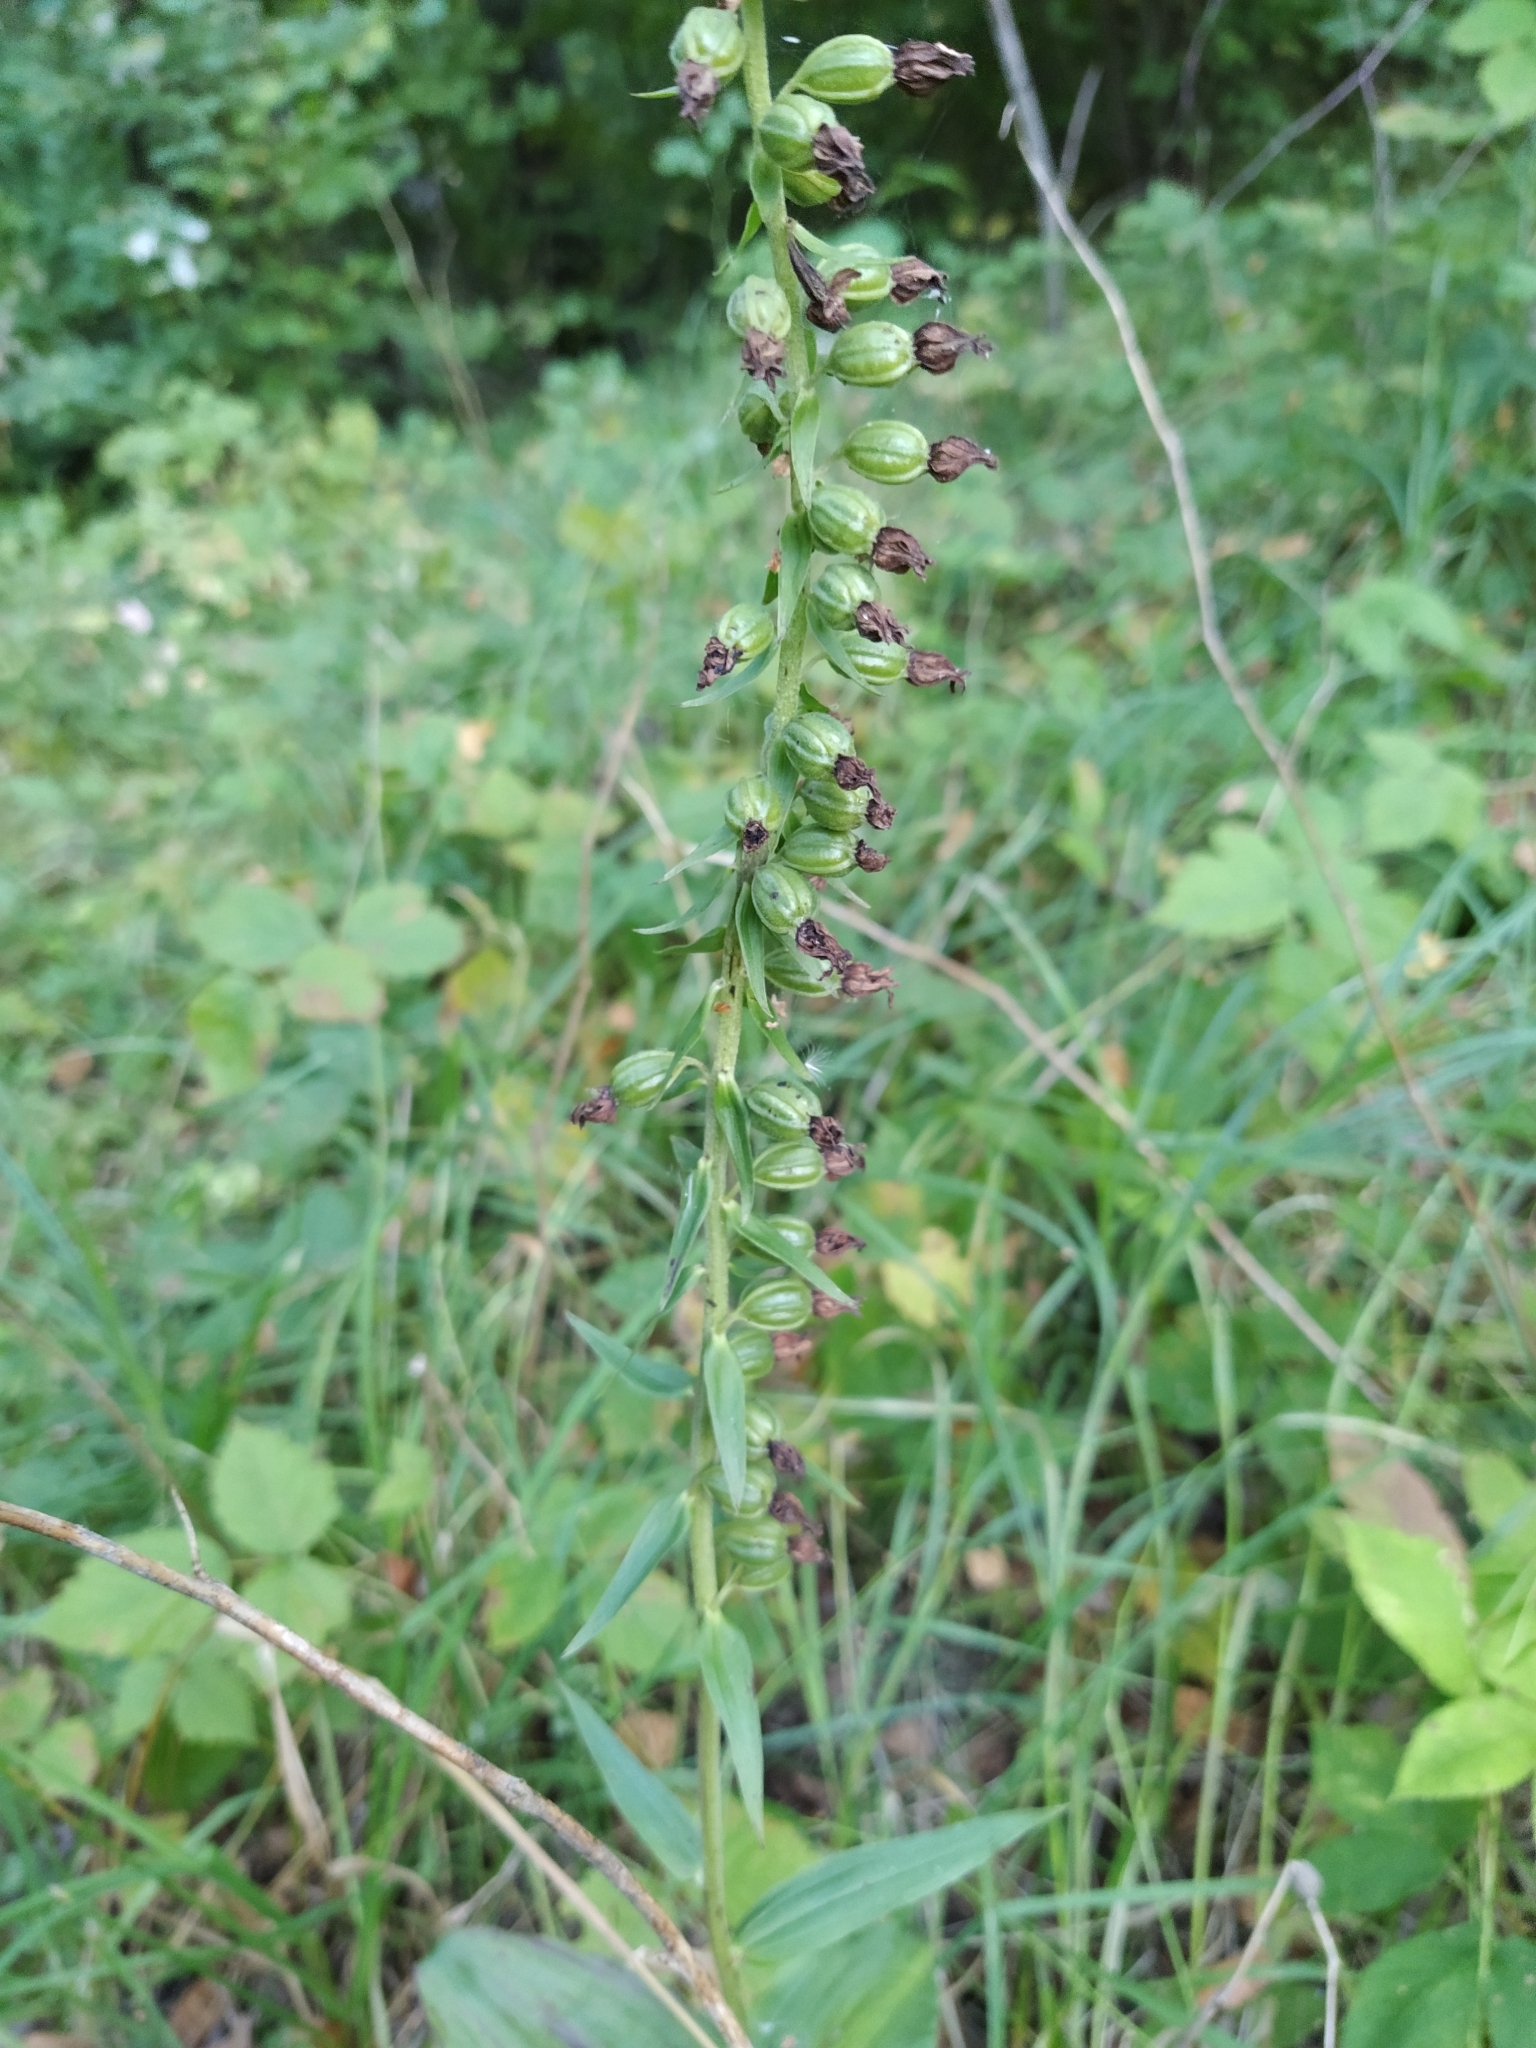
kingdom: Plantae
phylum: Tracheophyta
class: Liliopsida
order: Asparagales
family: Orchidaceae
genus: Epipactis
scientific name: Epipactis helleborine
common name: Broad-leaved helleborine
